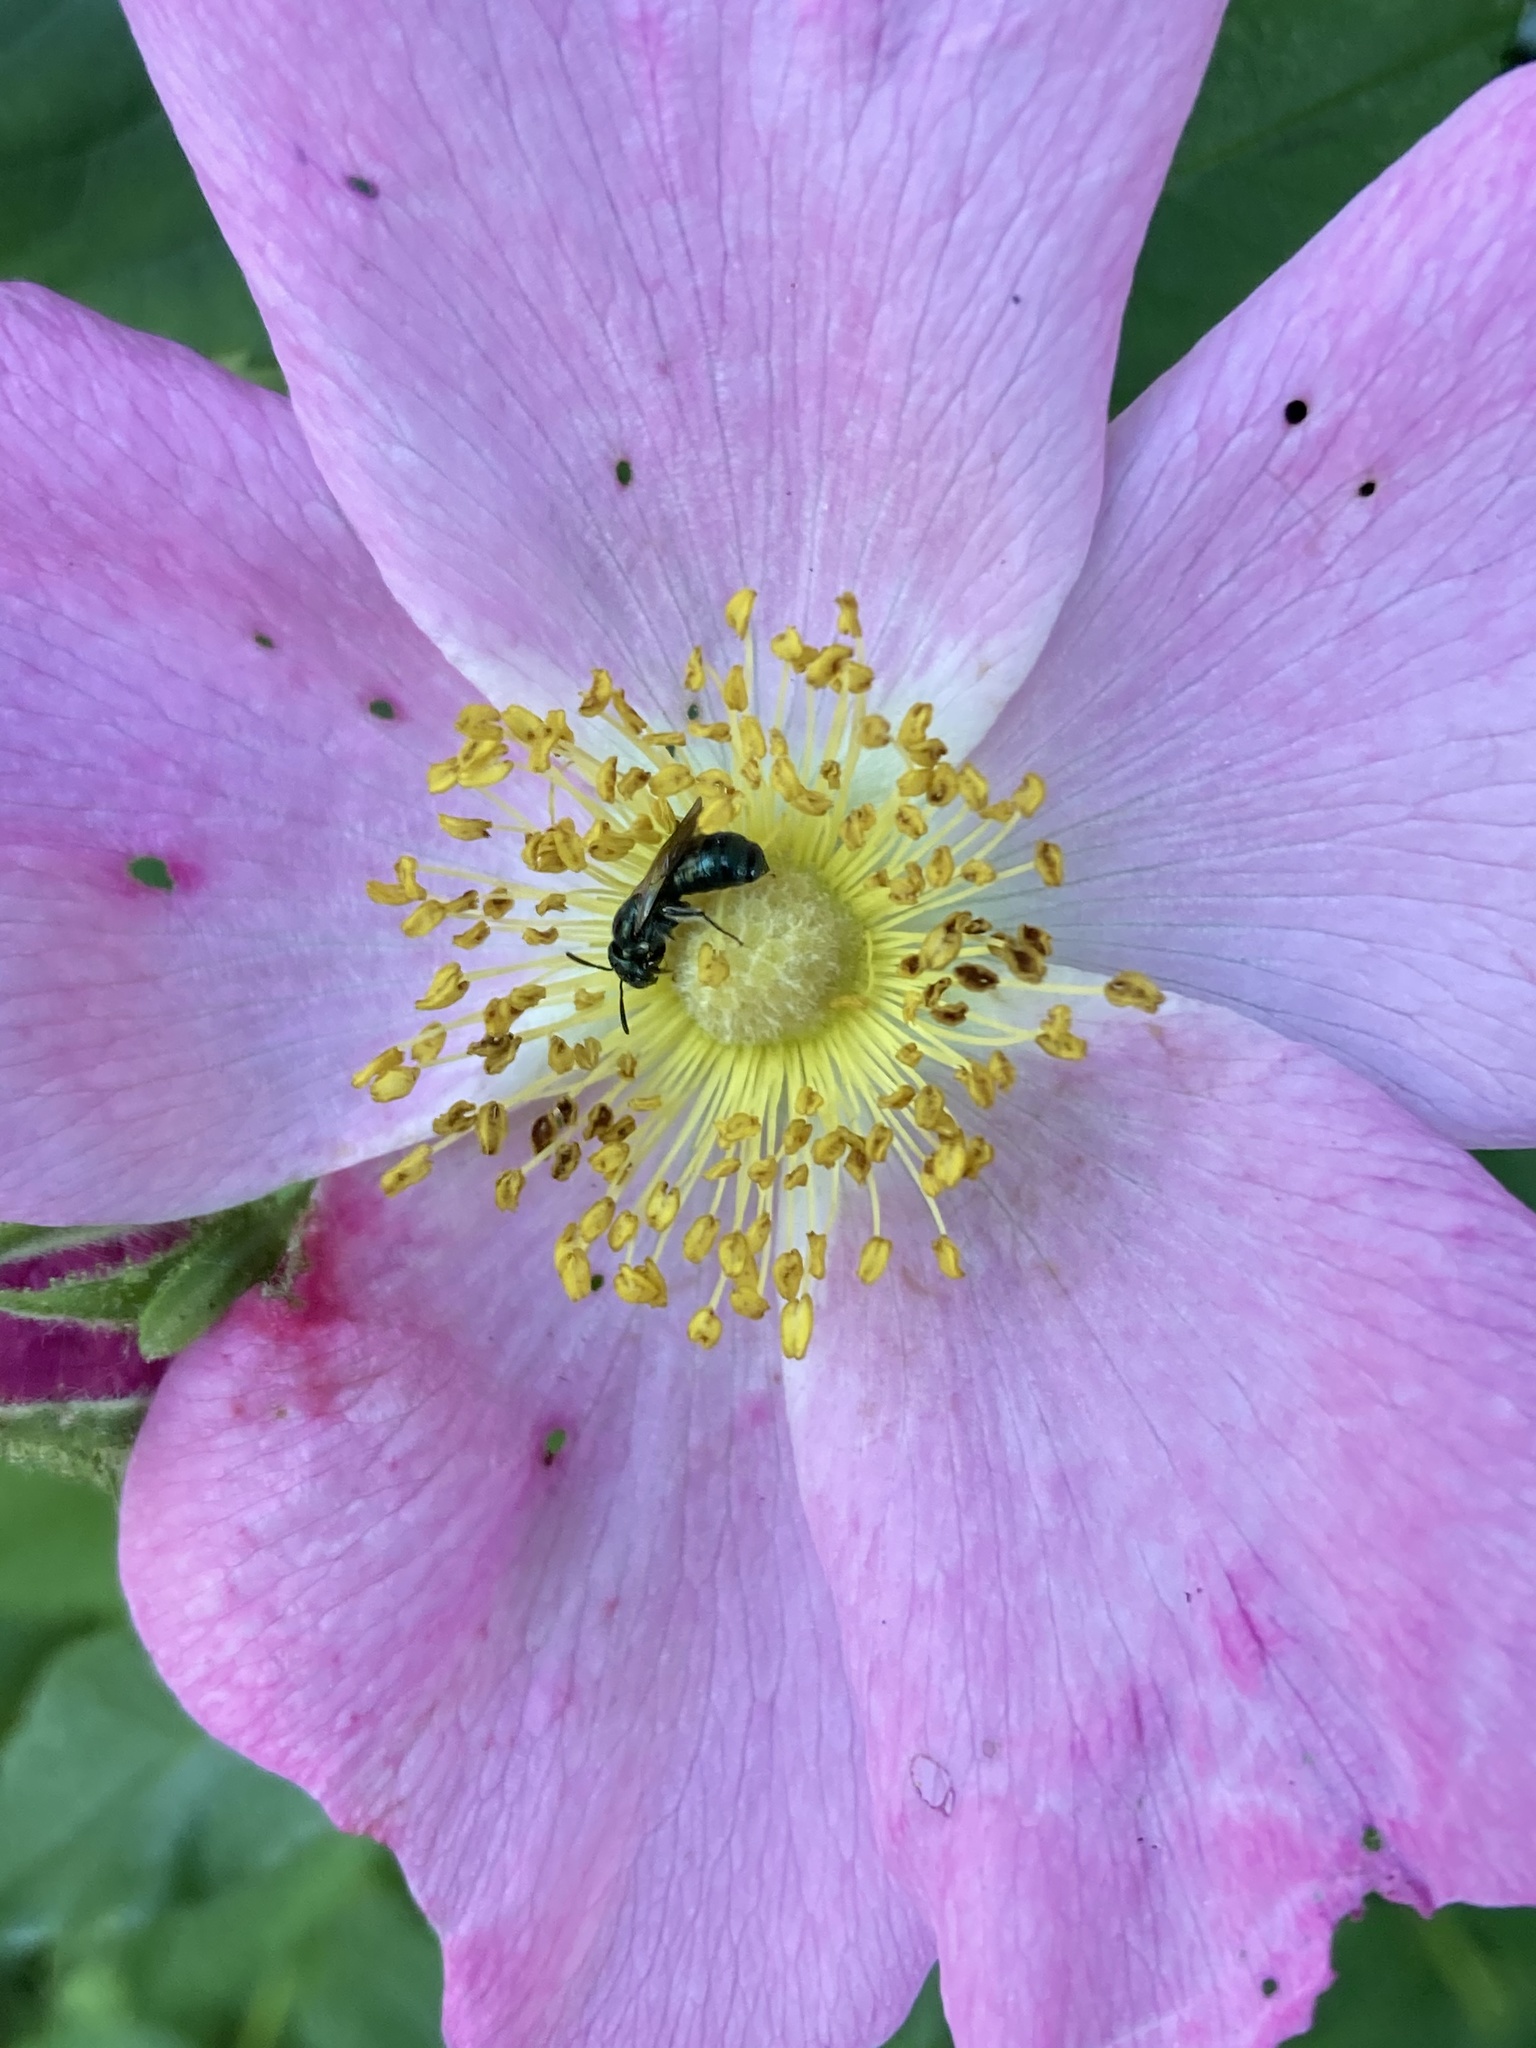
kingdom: Animalia
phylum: Arthropoda
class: Insecta
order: Hymenoptera
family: Apidae
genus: Zadontomerus
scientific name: Zadontomerus
